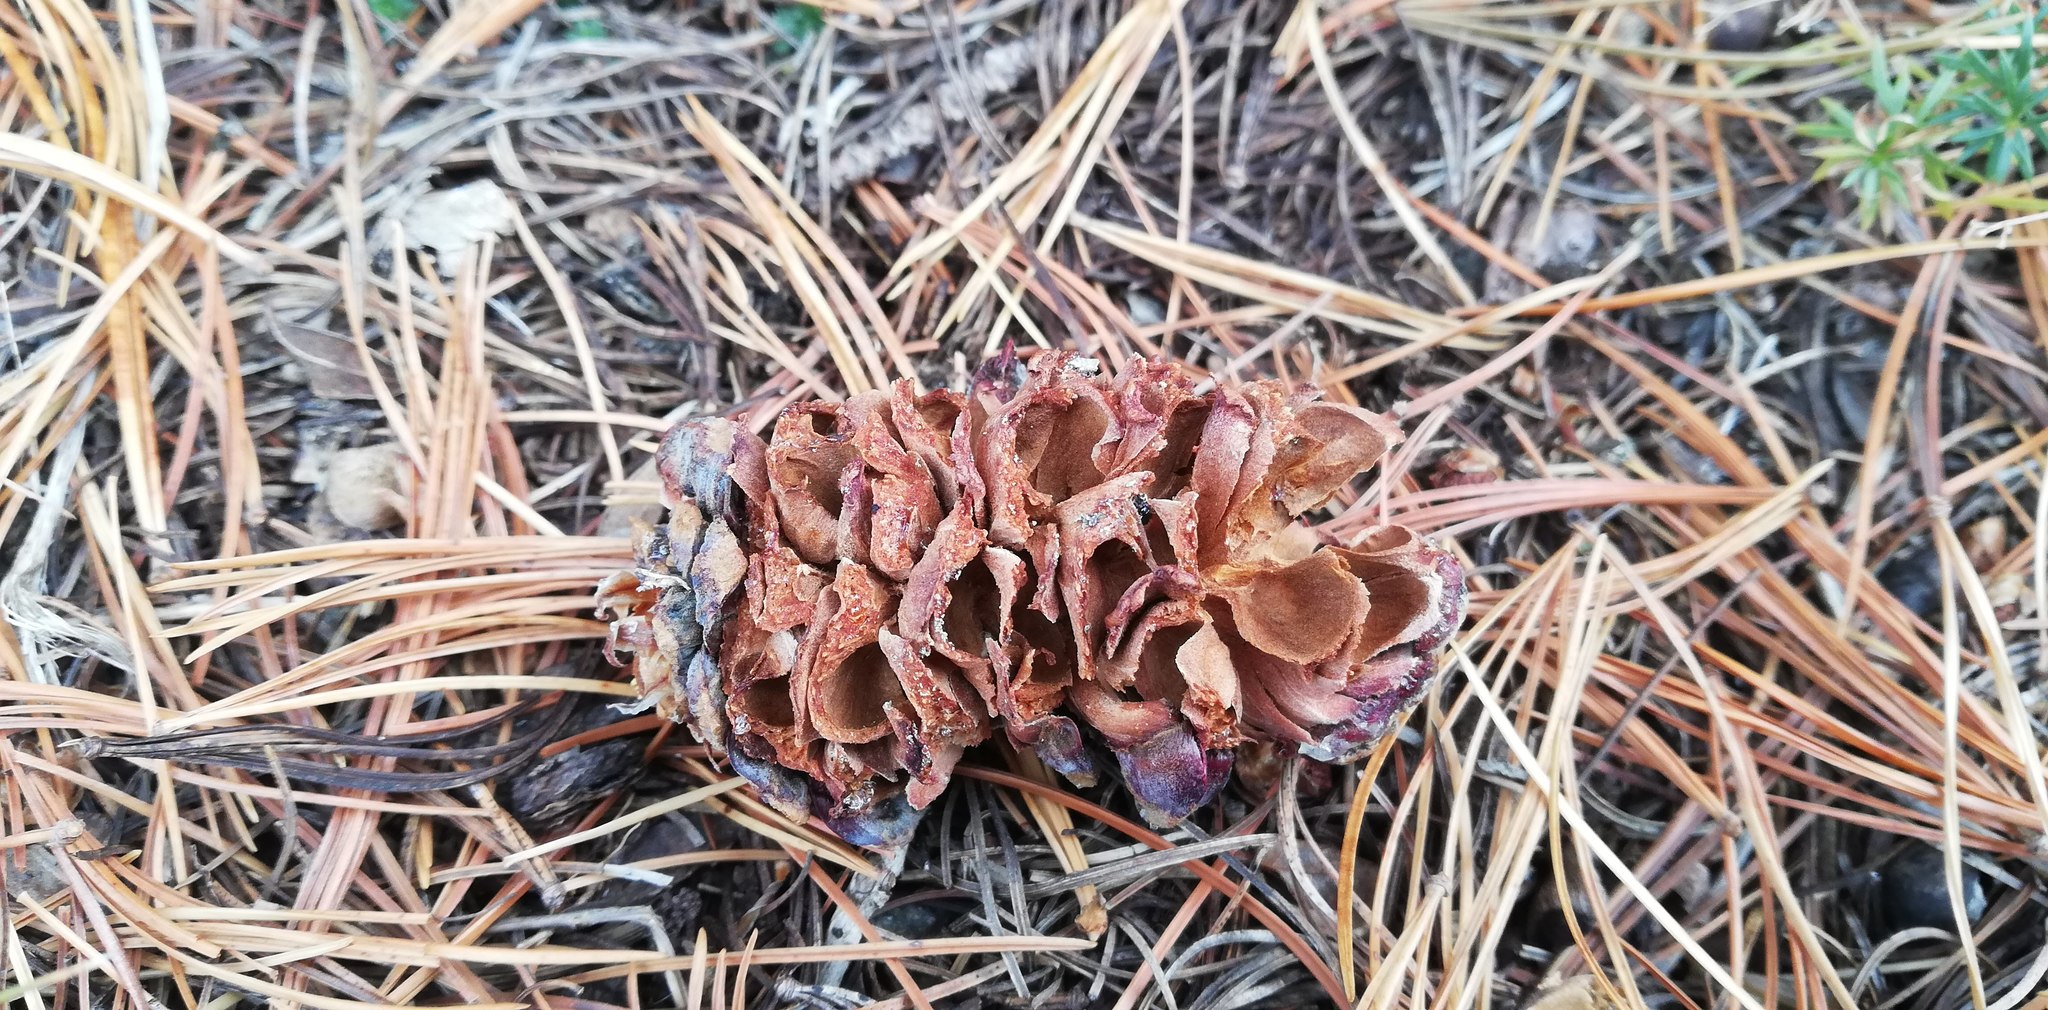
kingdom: Animalia
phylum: Chordata
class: Aves
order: Passeriformes
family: Corvidae
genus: Nucifraga
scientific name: Nucifraga caryocatactes
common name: Spotted nutcracker
